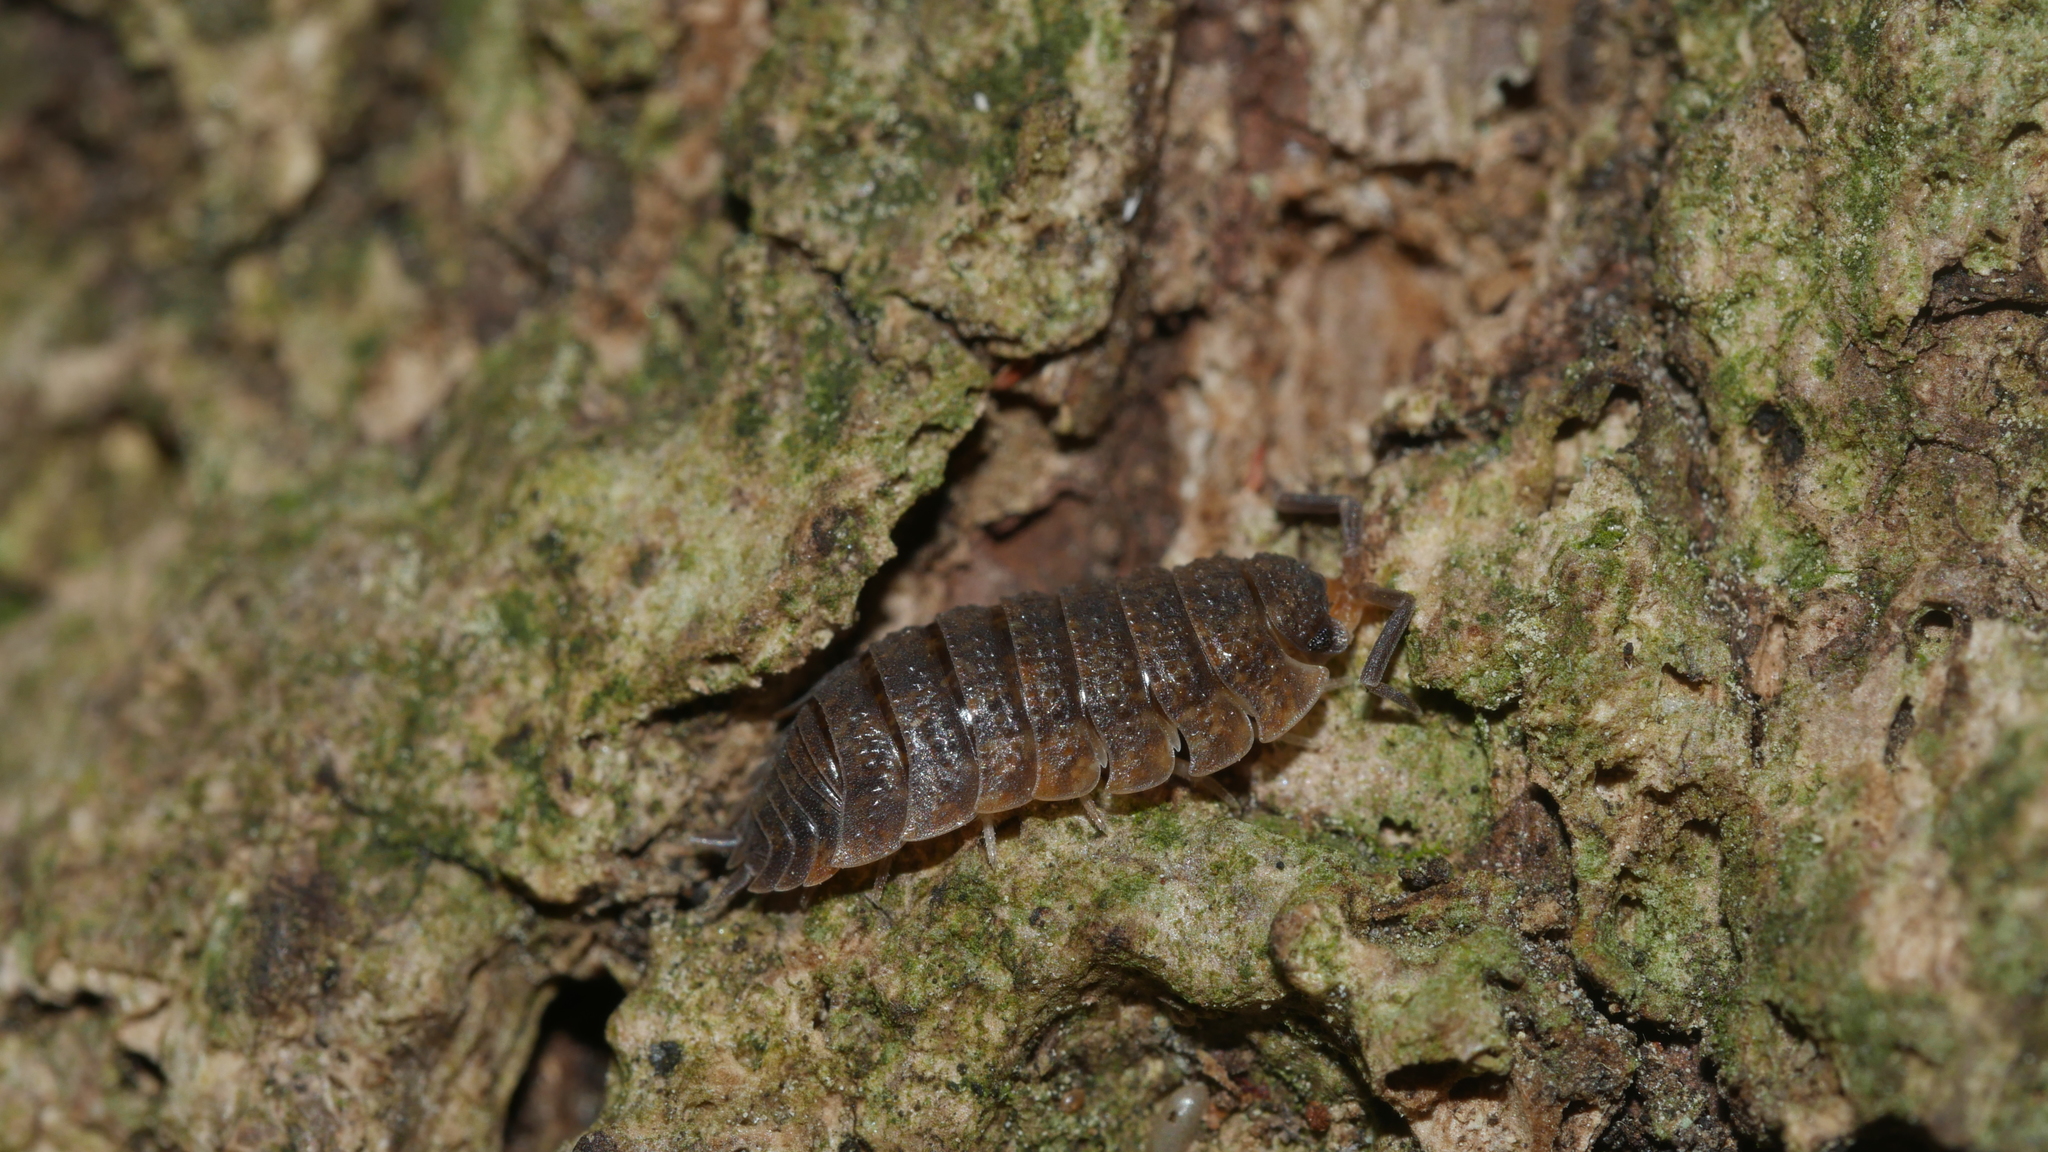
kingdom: Animalia
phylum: Arthropoda
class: Malacostraca
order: Isopoda
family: Porcellionidae
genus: Porcellio
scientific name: Porcellio scaber
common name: Common rough woodlouse
